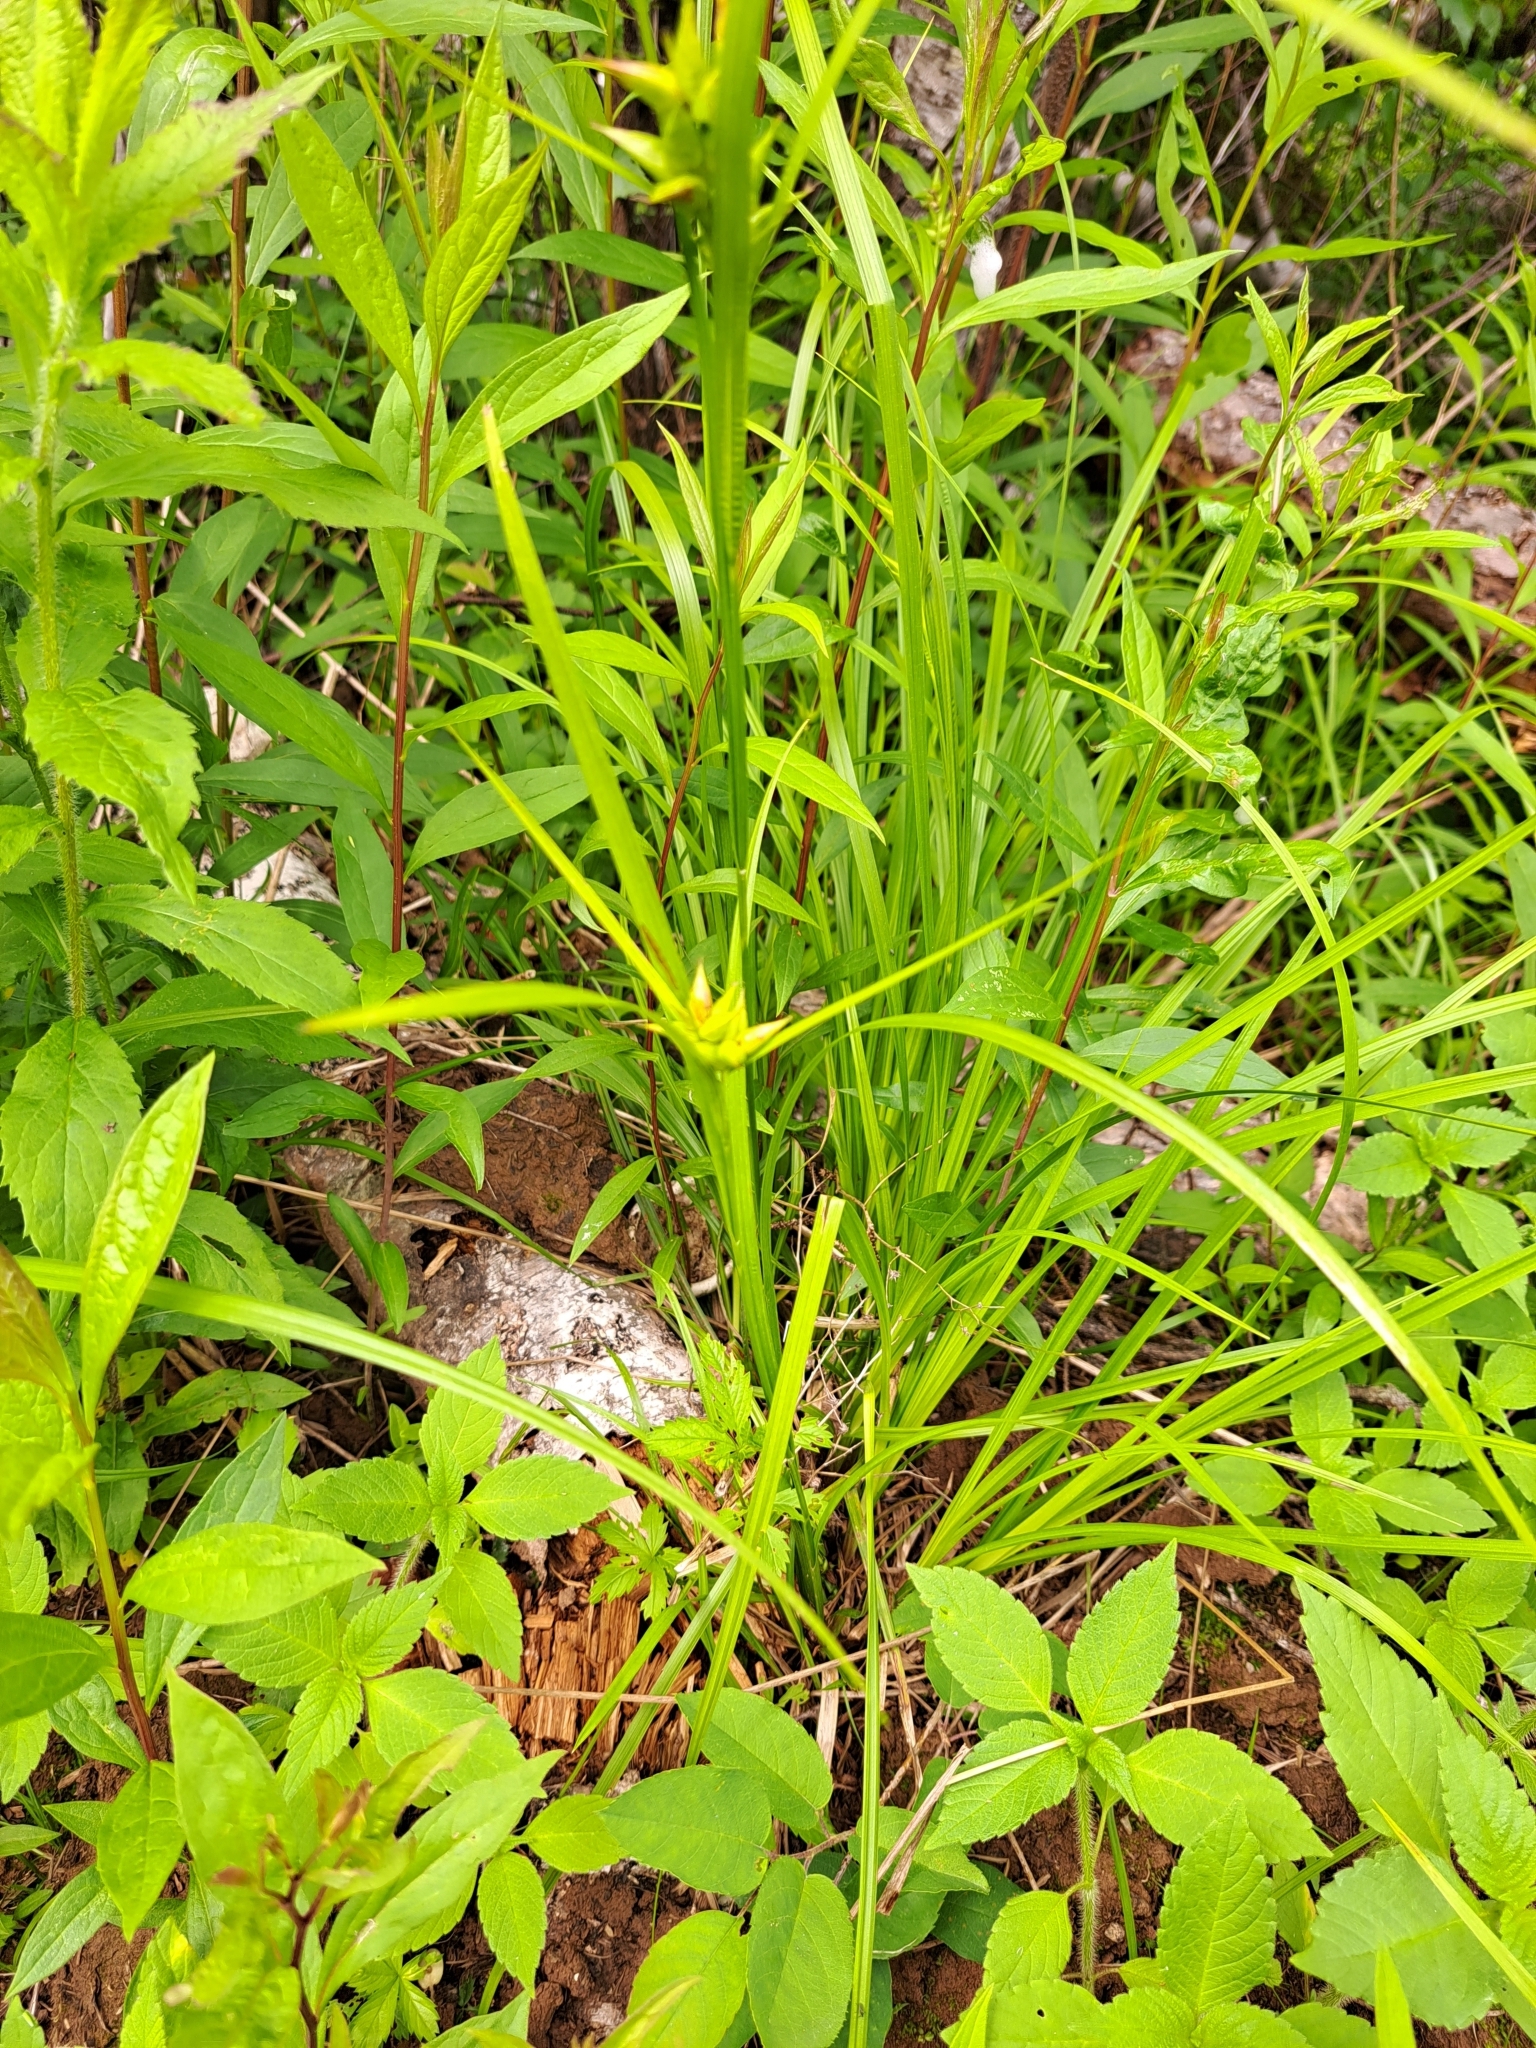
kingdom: Plantae
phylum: Tracheophyta
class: Liliopsida
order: Poales
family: Cyperaceae
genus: Carex
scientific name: Carex intumescens
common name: Greater bladder sedge
